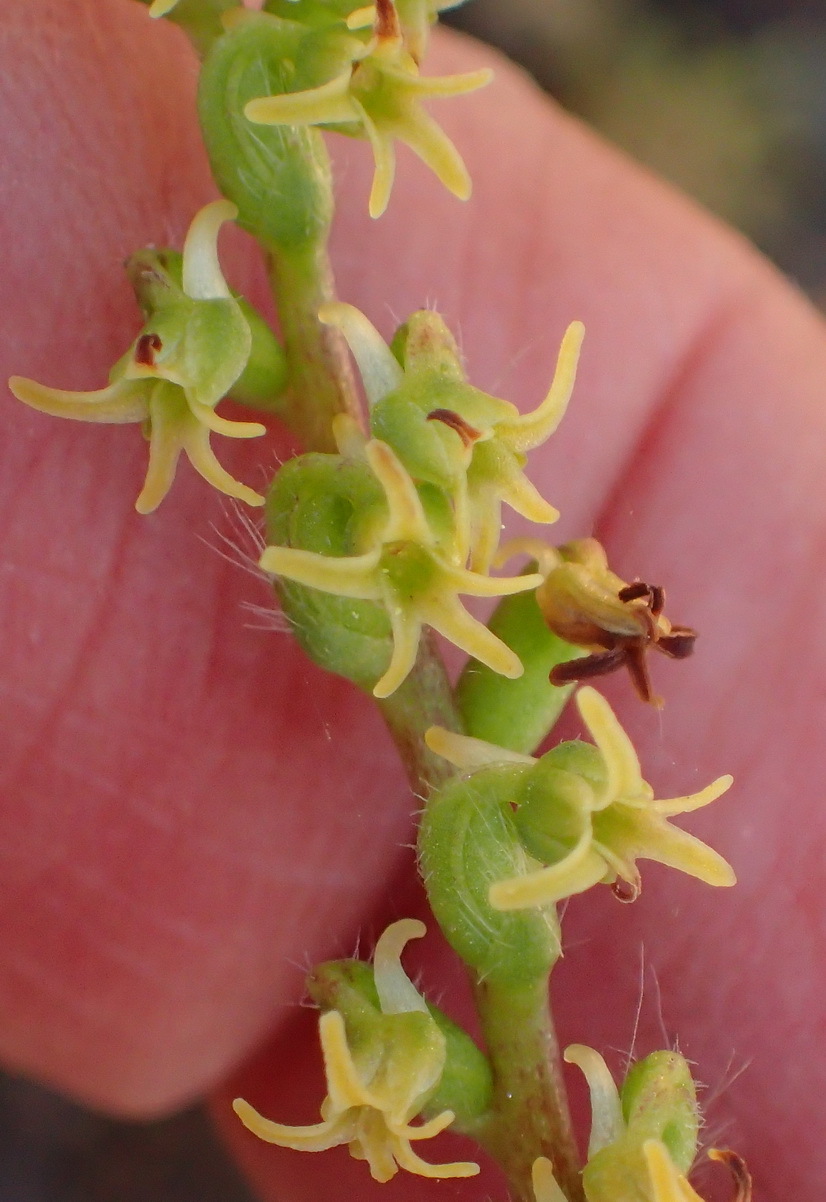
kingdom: Plantae
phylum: Tracheophyta
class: Liliopsida
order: Asparagales
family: Orchidaceae
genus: Holothrix
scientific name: Holothrix villosa
